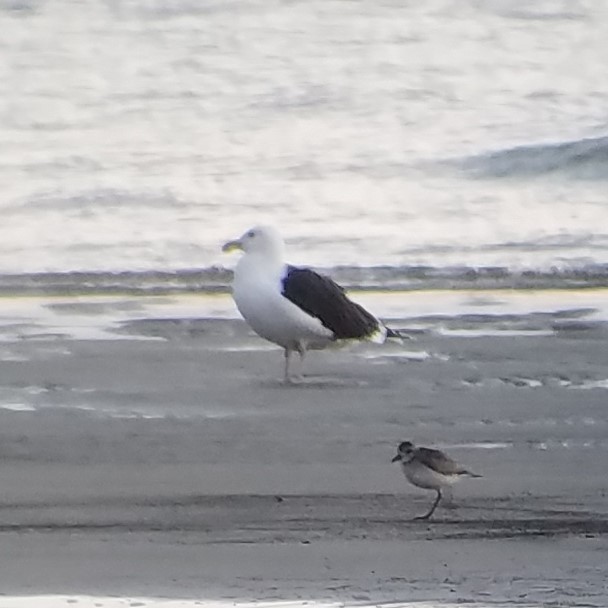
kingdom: Animalia
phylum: Chordata
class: Aves
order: Charadriiformes
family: Charadriidae
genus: Pluvialis
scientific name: Pluvialis squatarola
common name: Grey plover
